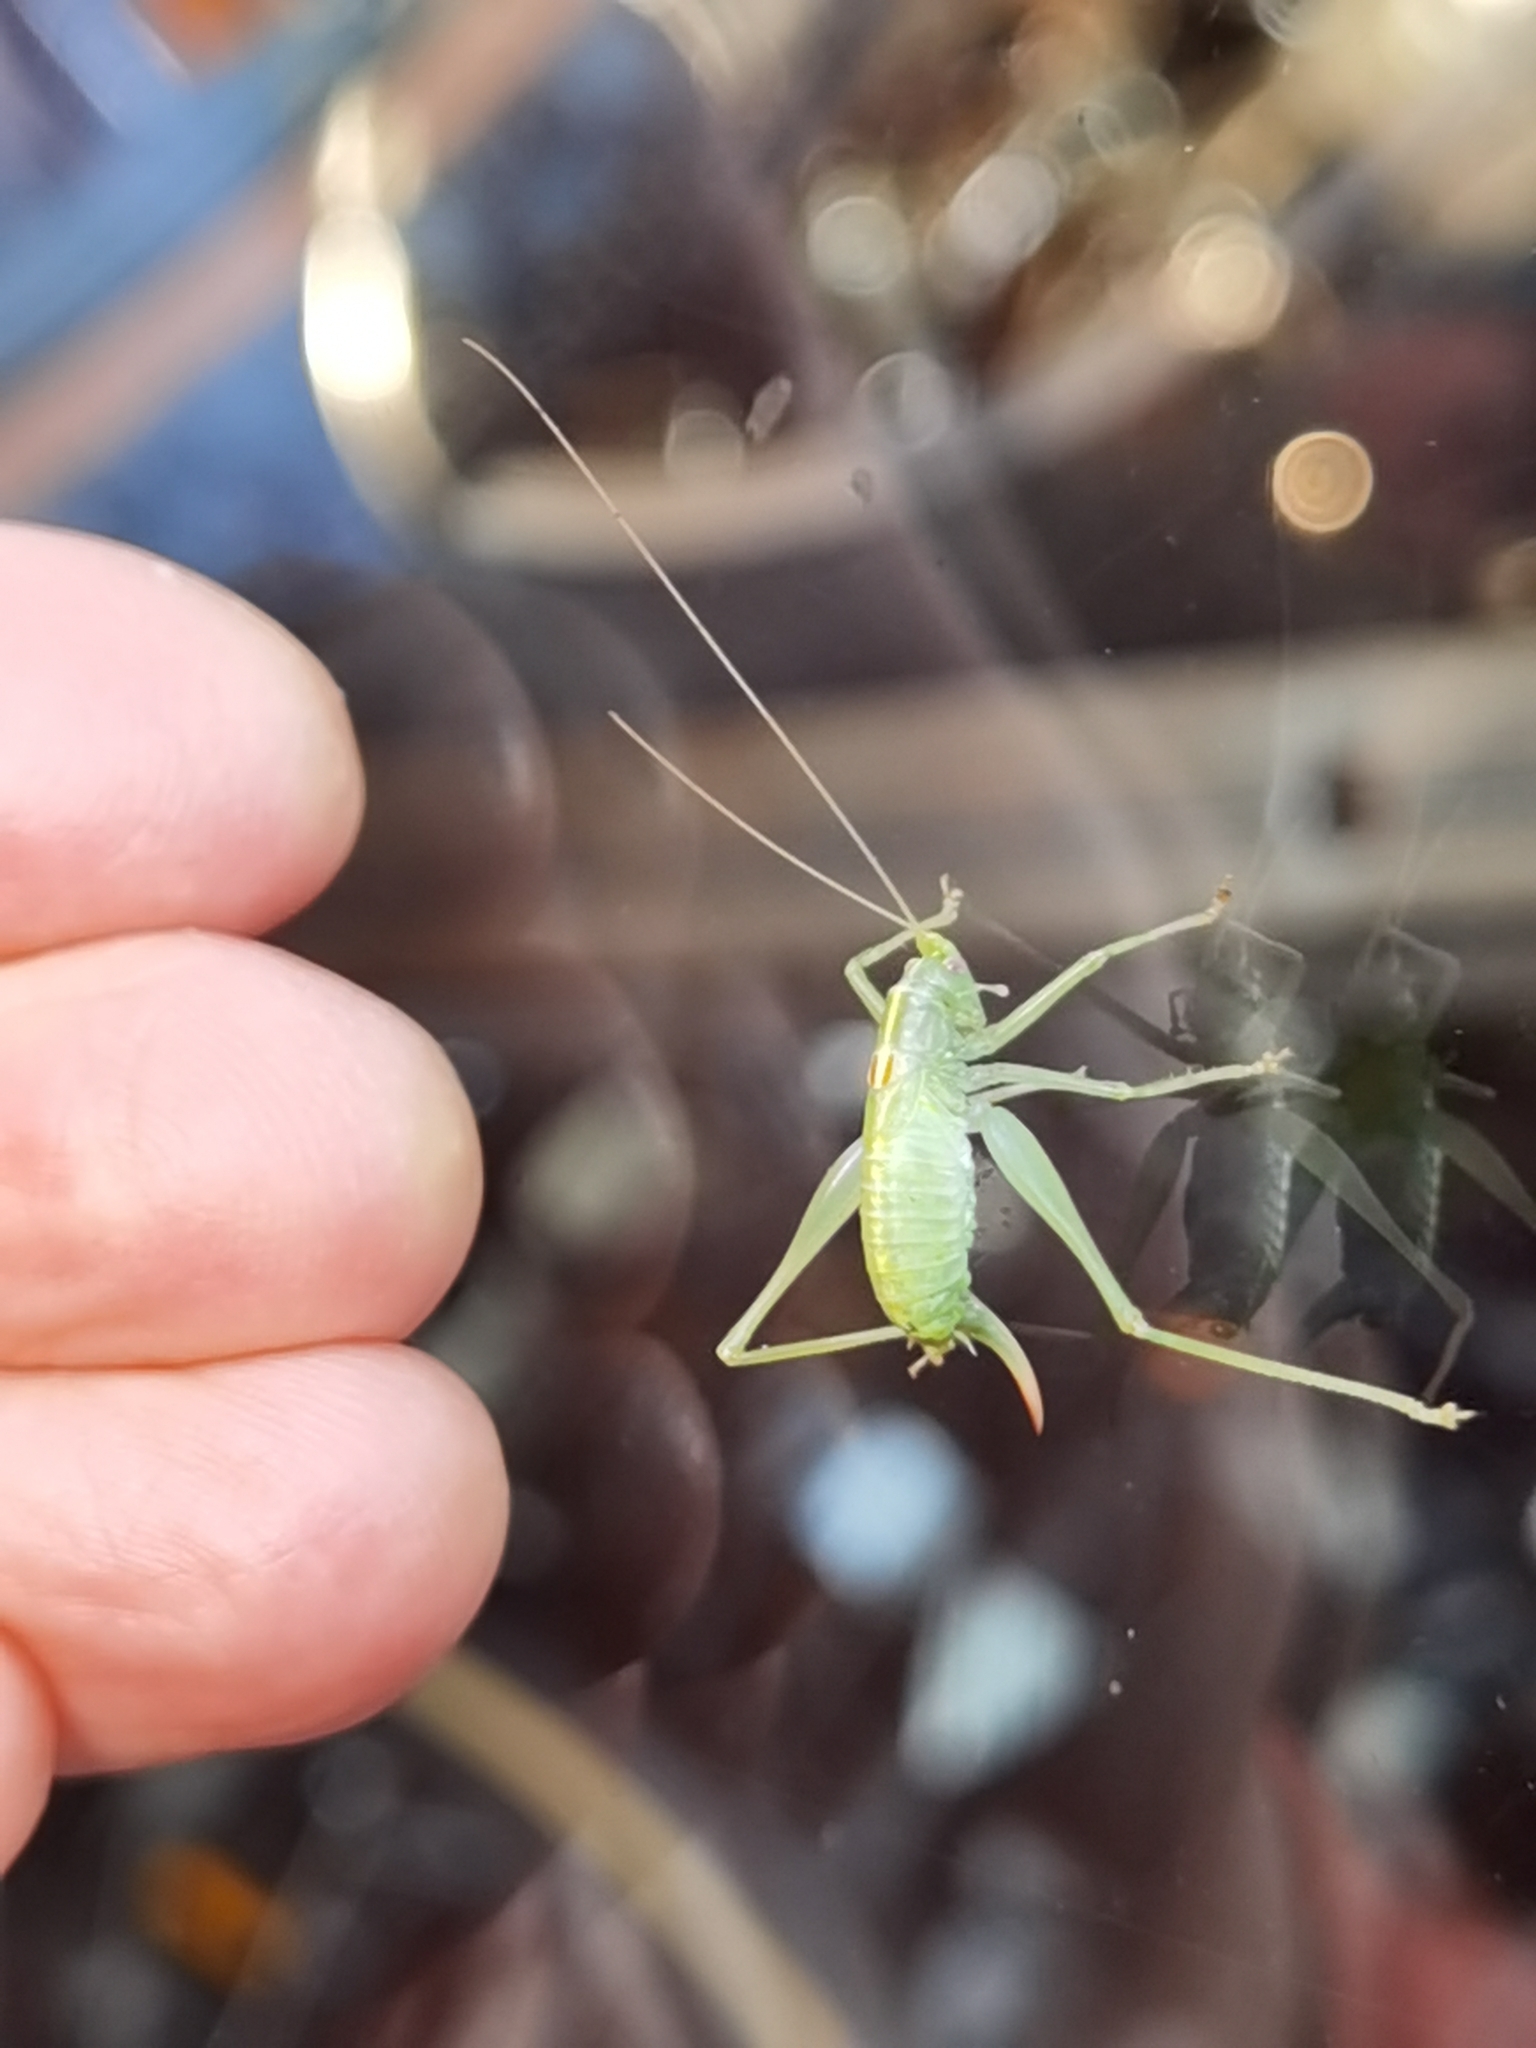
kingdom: Animalia
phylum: Arthropoda
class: Insecta
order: Orthoptera
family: Tettigoniidae
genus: Meconema
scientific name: Meconema meridionale
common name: Southern oak bush-cricket
